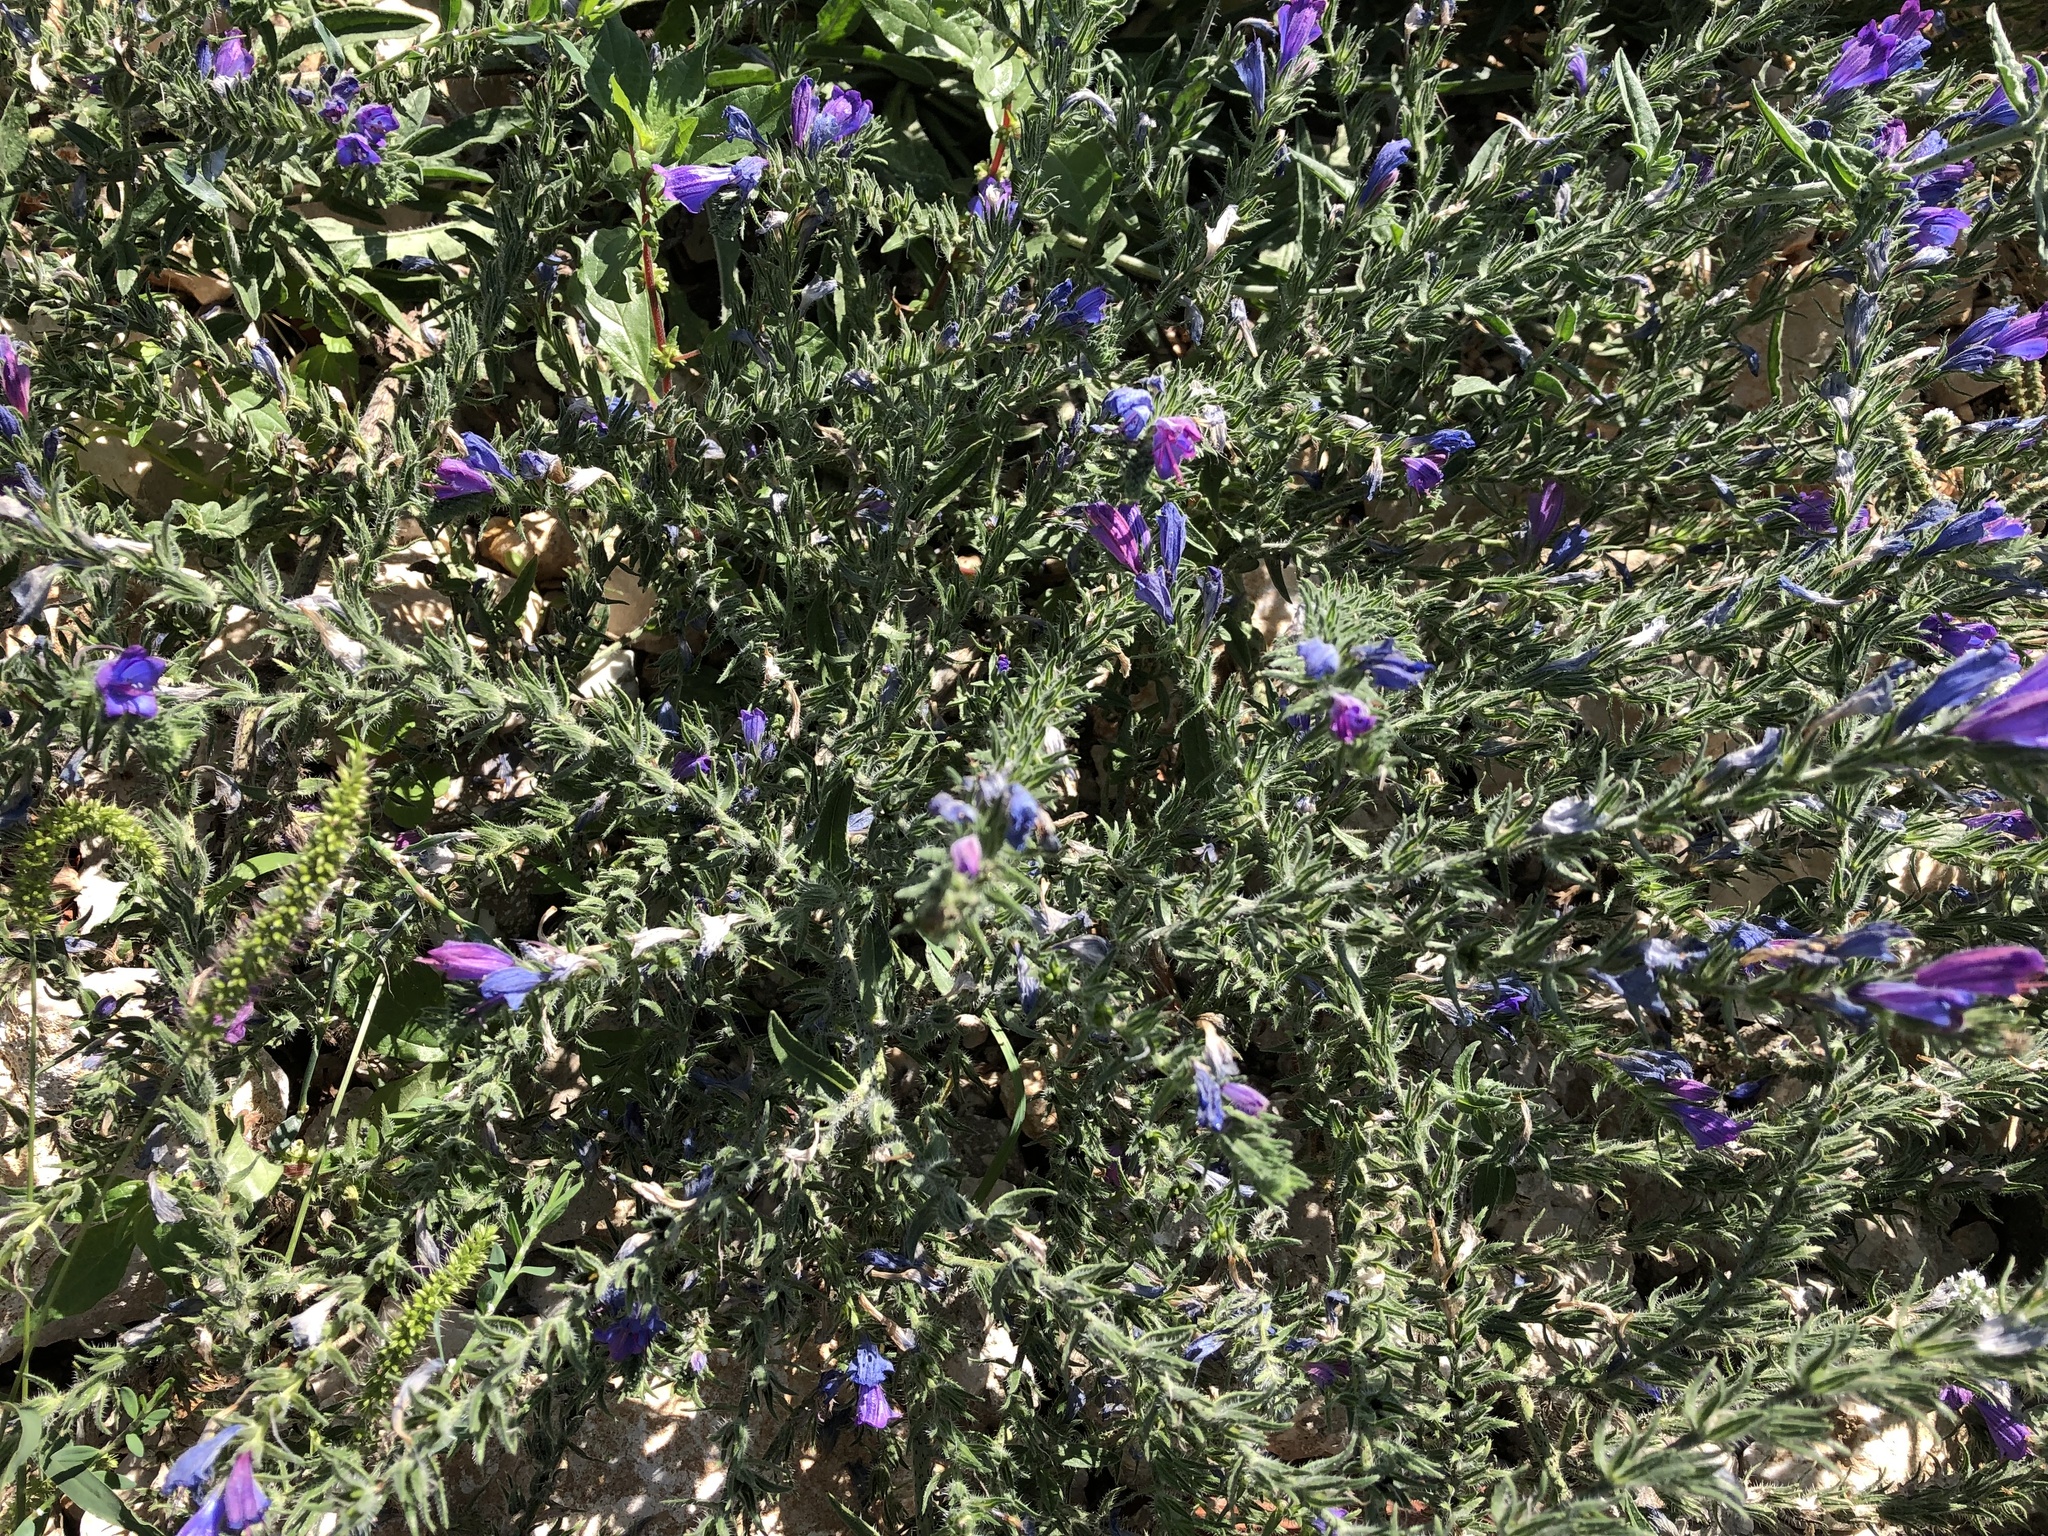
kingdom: Plantae
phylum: Tracheophyta
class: Magnoliopsida
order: Boraginales
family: Boraginaceae
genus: Echium
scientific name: Echium vulgare
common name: Common viper's bugloss
